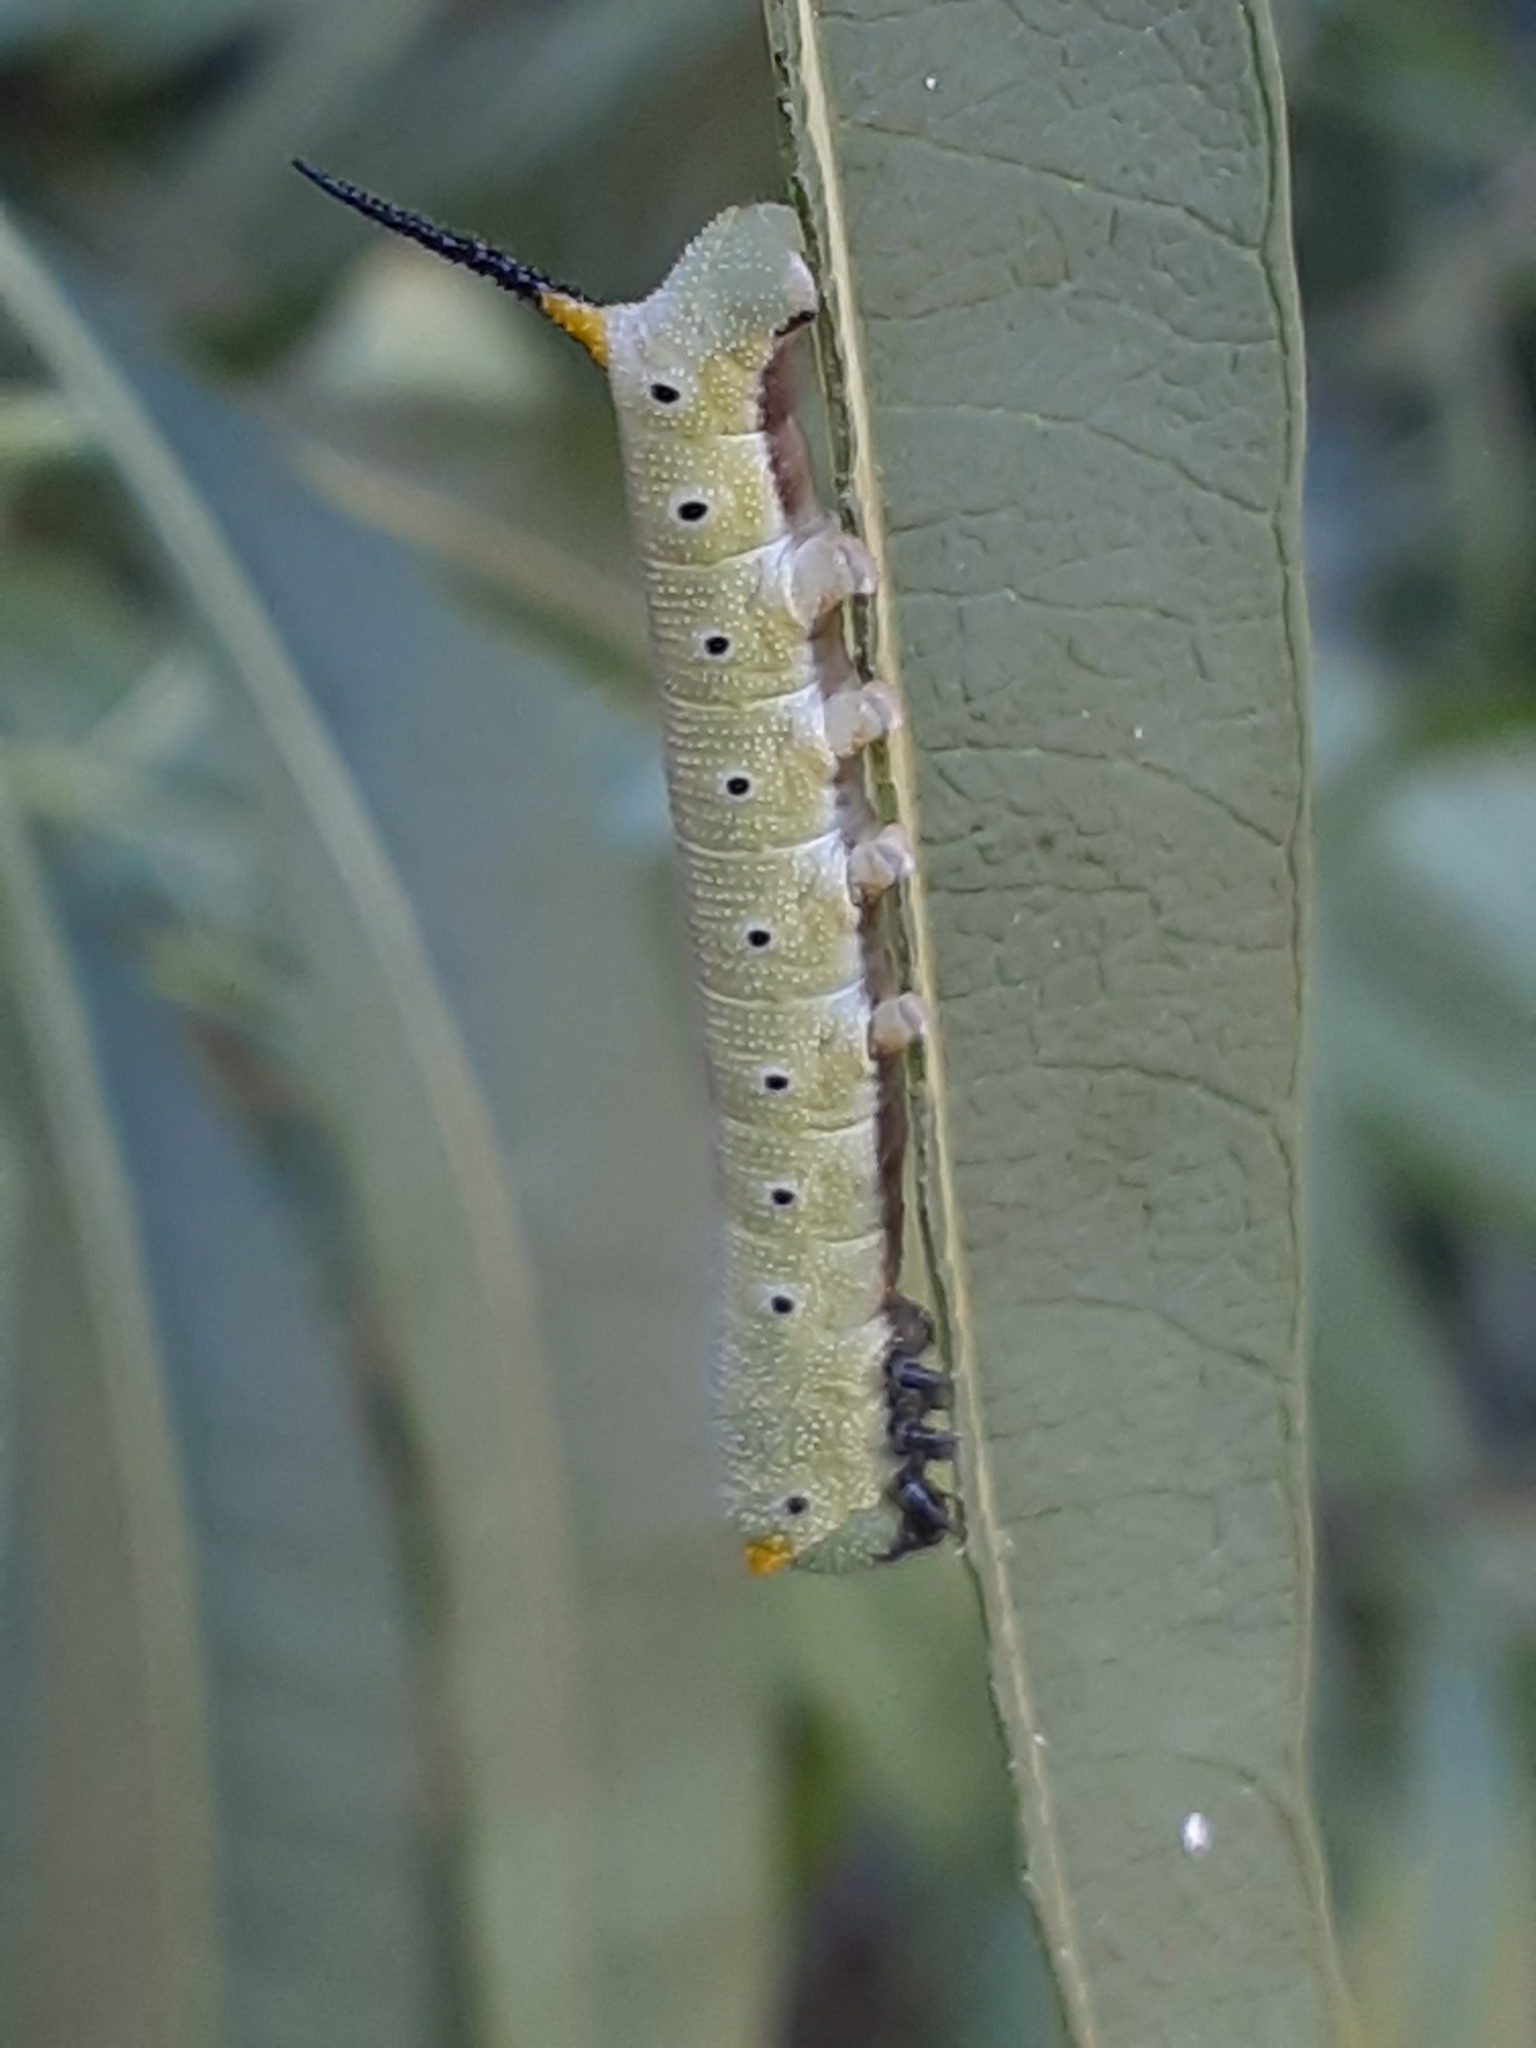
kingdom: Animalia
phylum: Arthropoda
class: Insecta
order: Lepidoptera
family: Sphingidae
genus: Hemaris
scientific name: Hemaris diffinis
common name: Bumblebee moth
